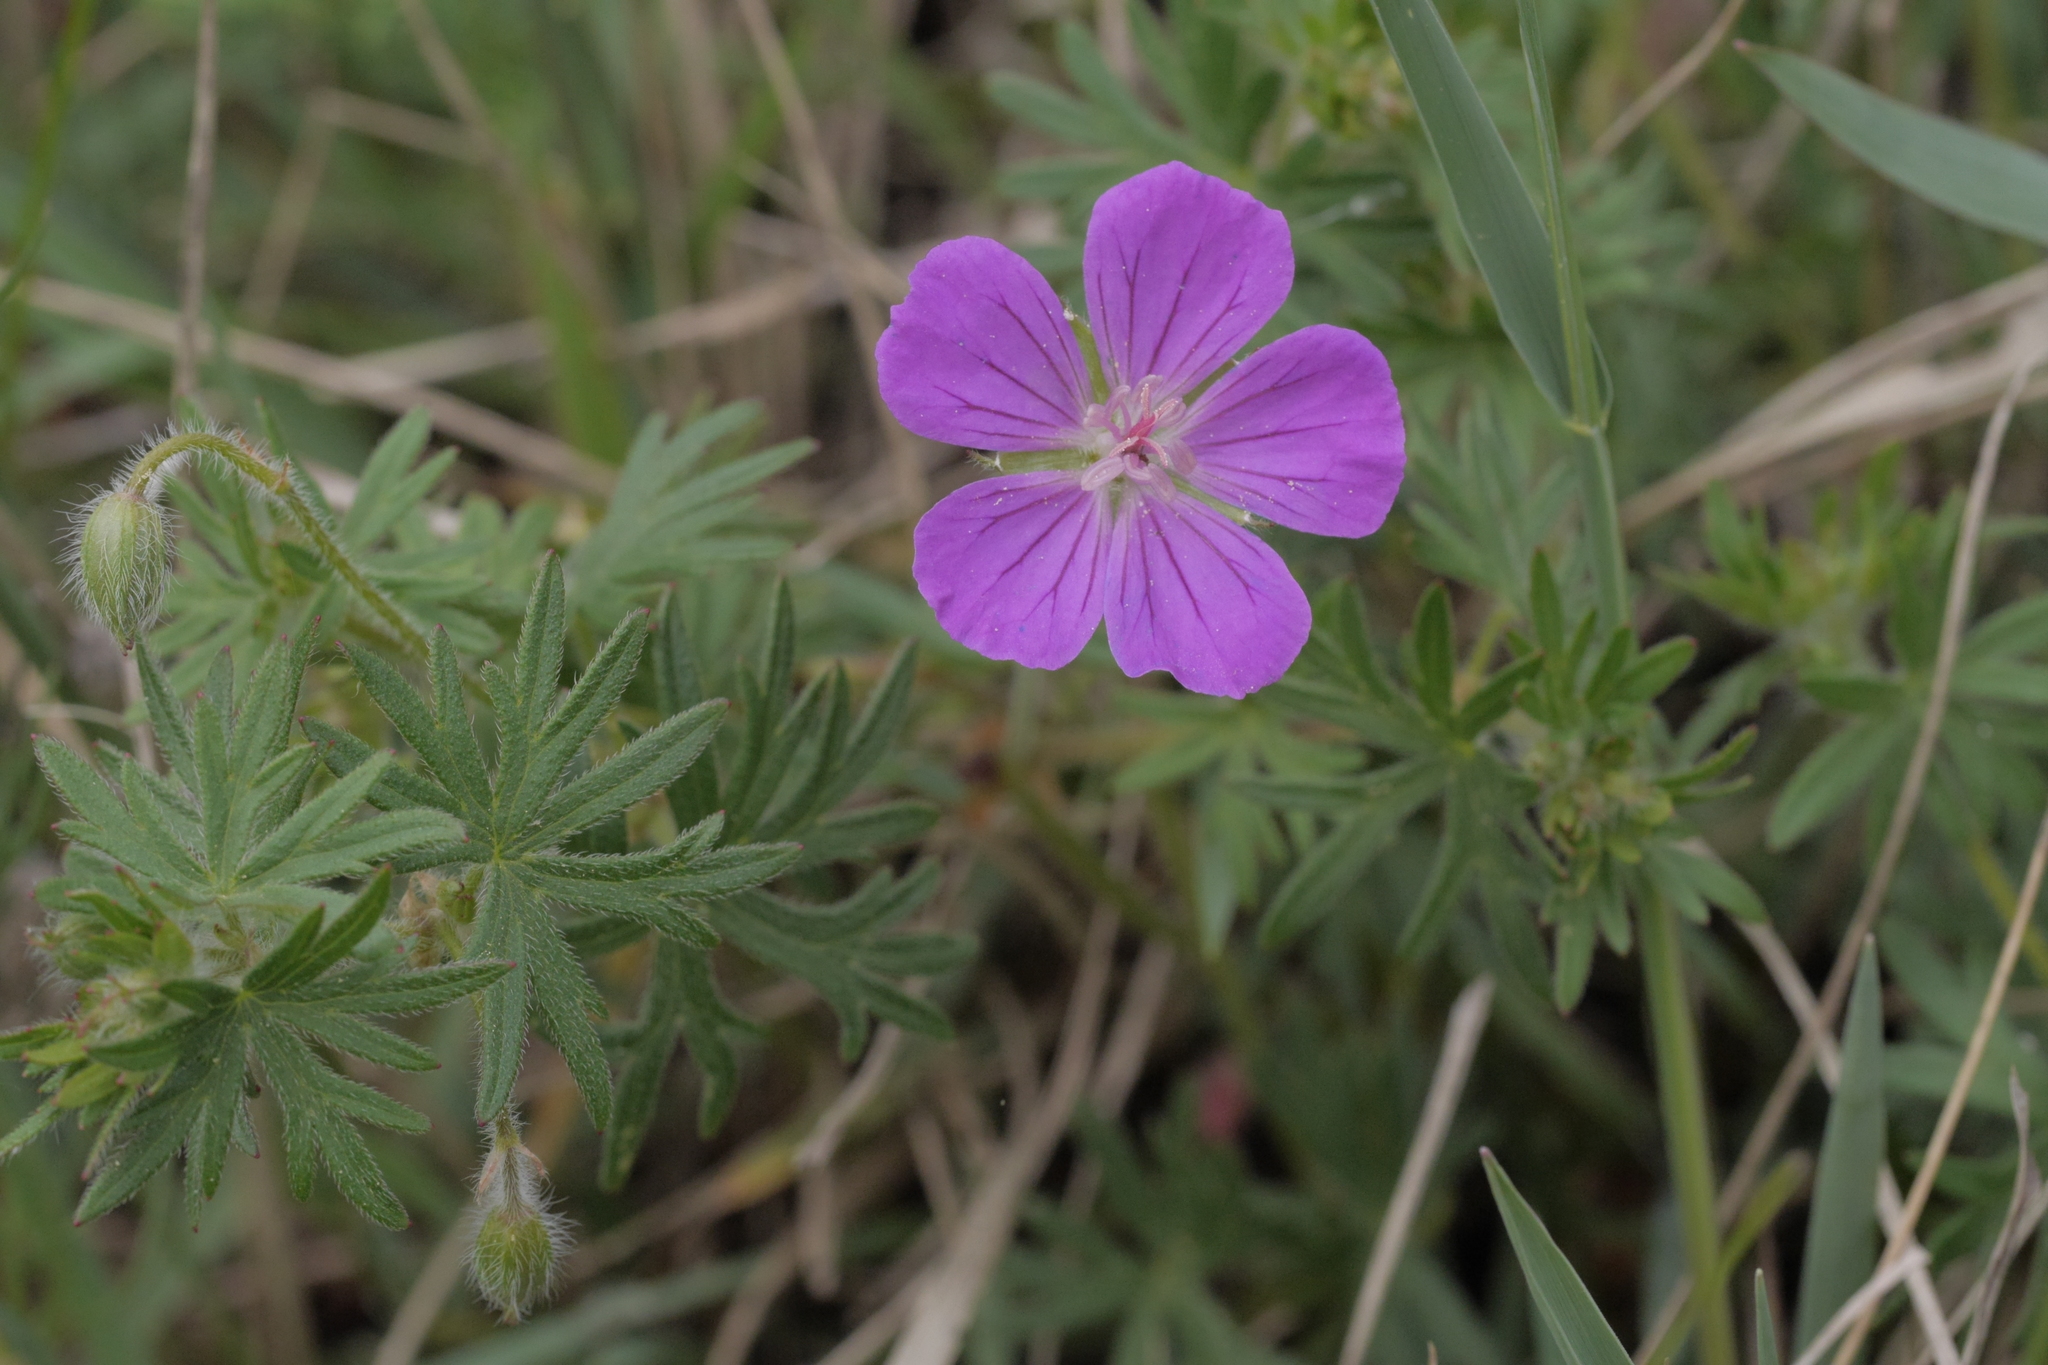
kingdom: Plantae
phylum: Tracheophyta
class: Magnoliopsida
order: Geraniales
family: Geraniaceae
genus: Geranium
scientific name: Geranium sanguineum
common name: Bloody crane's-bill
